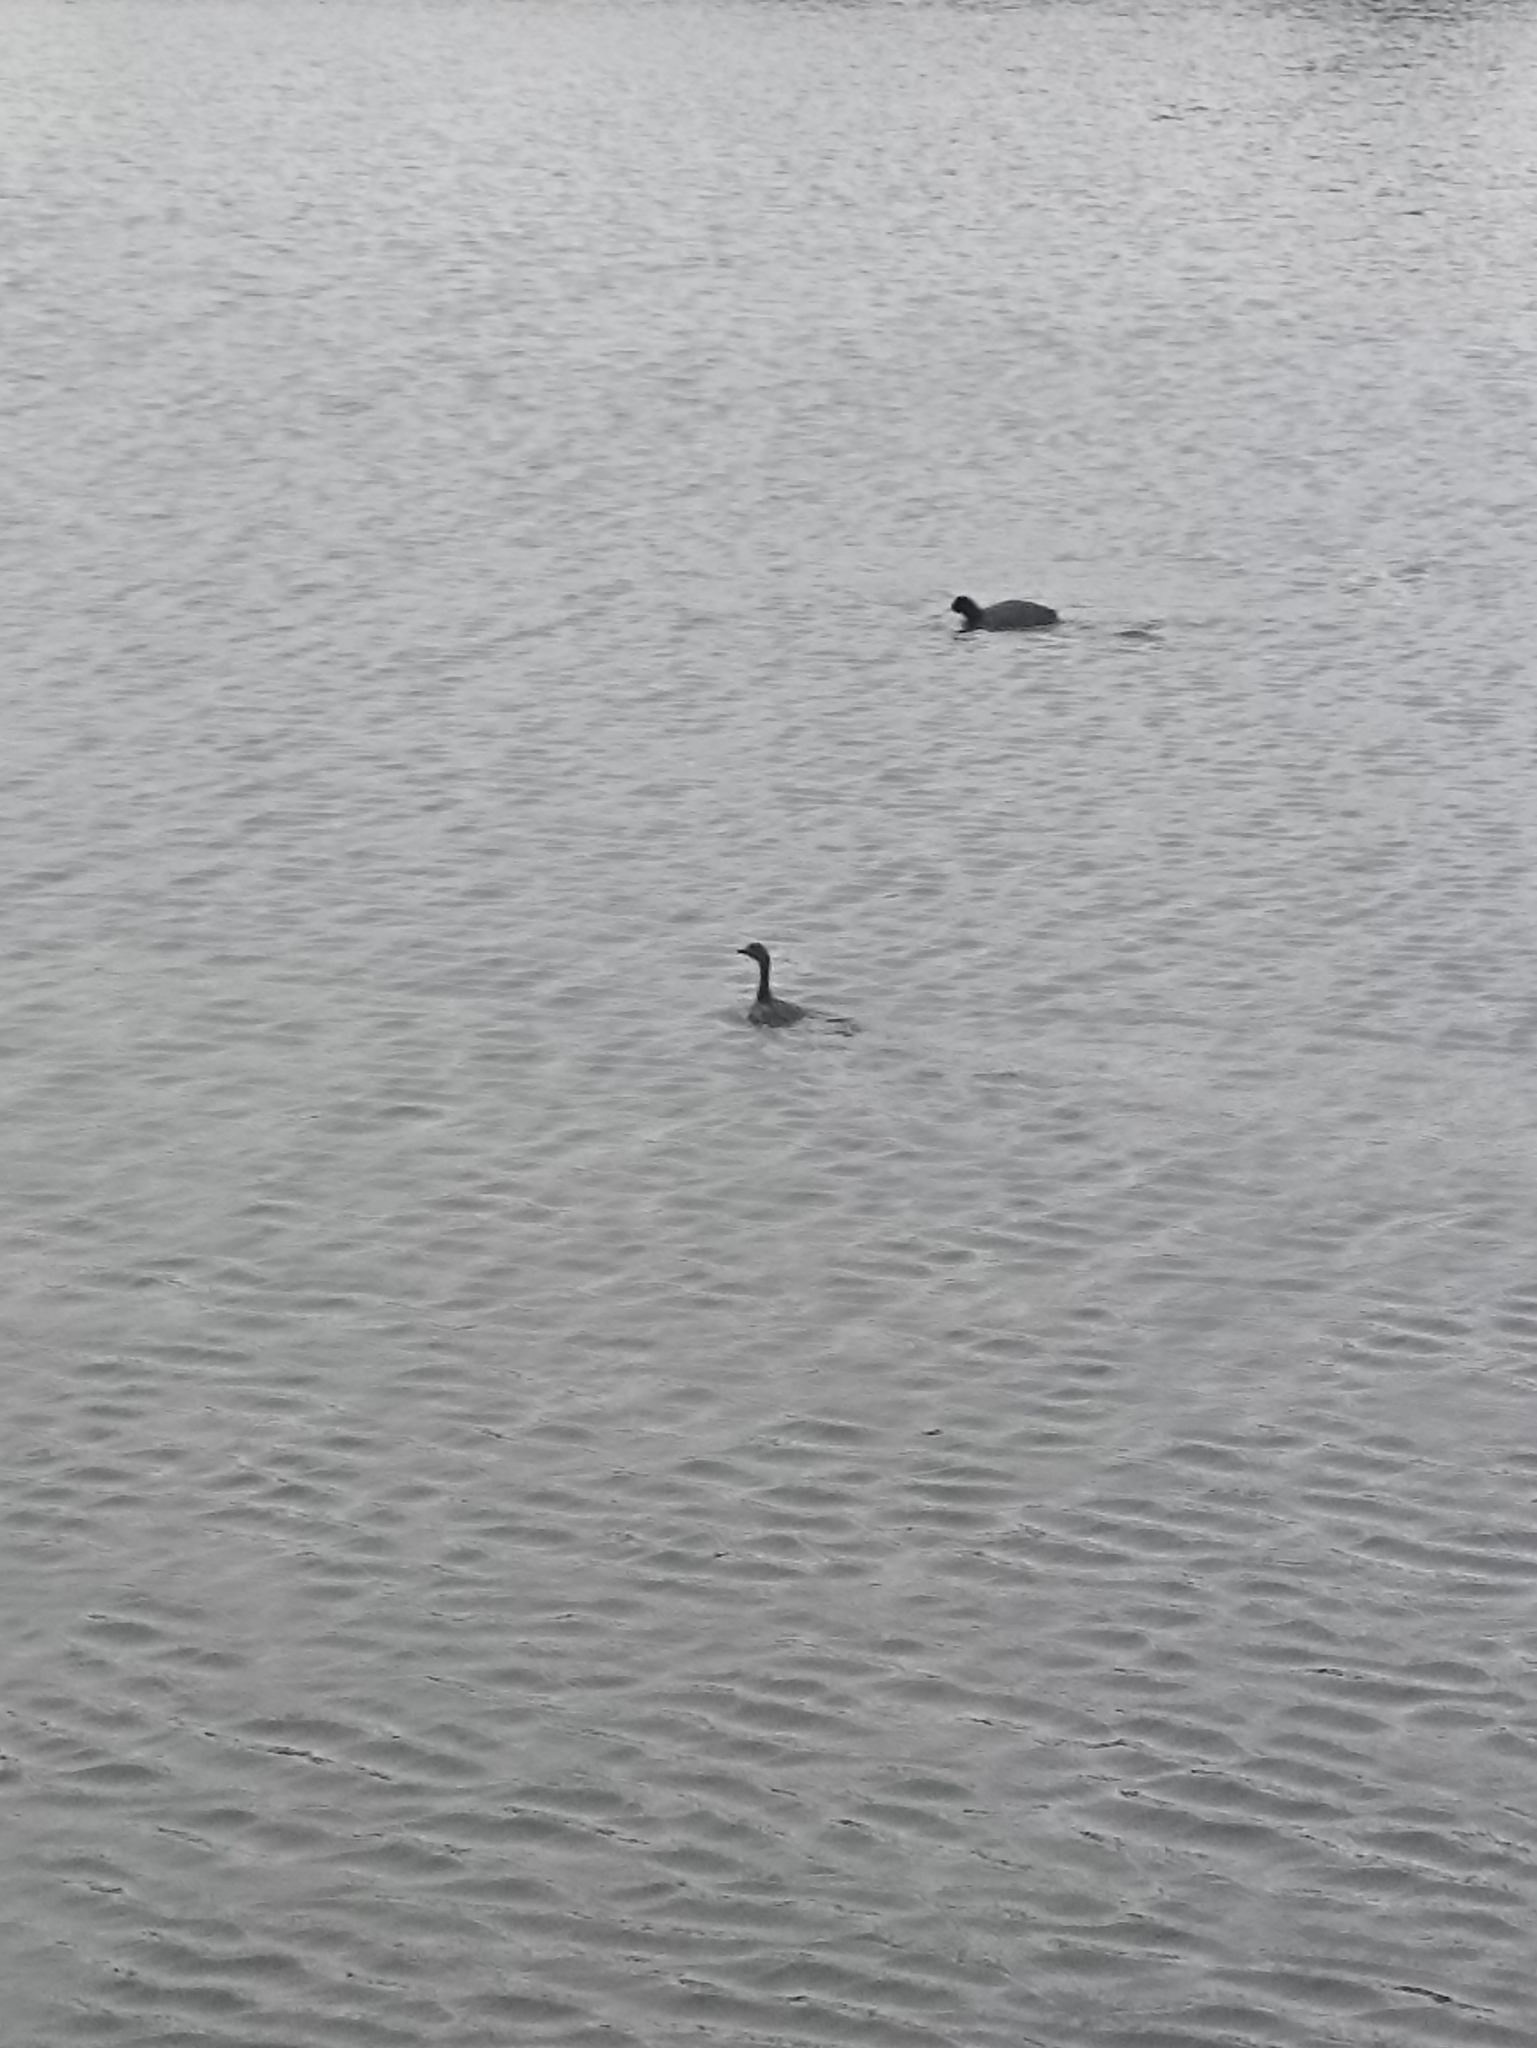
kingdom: Animalia
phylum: Chordata
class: Aves
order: Podicipediformes
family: Podicipedidae
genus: Poliocephalus
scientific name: Poliocephalus rufopectus
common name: New zealand grebe
